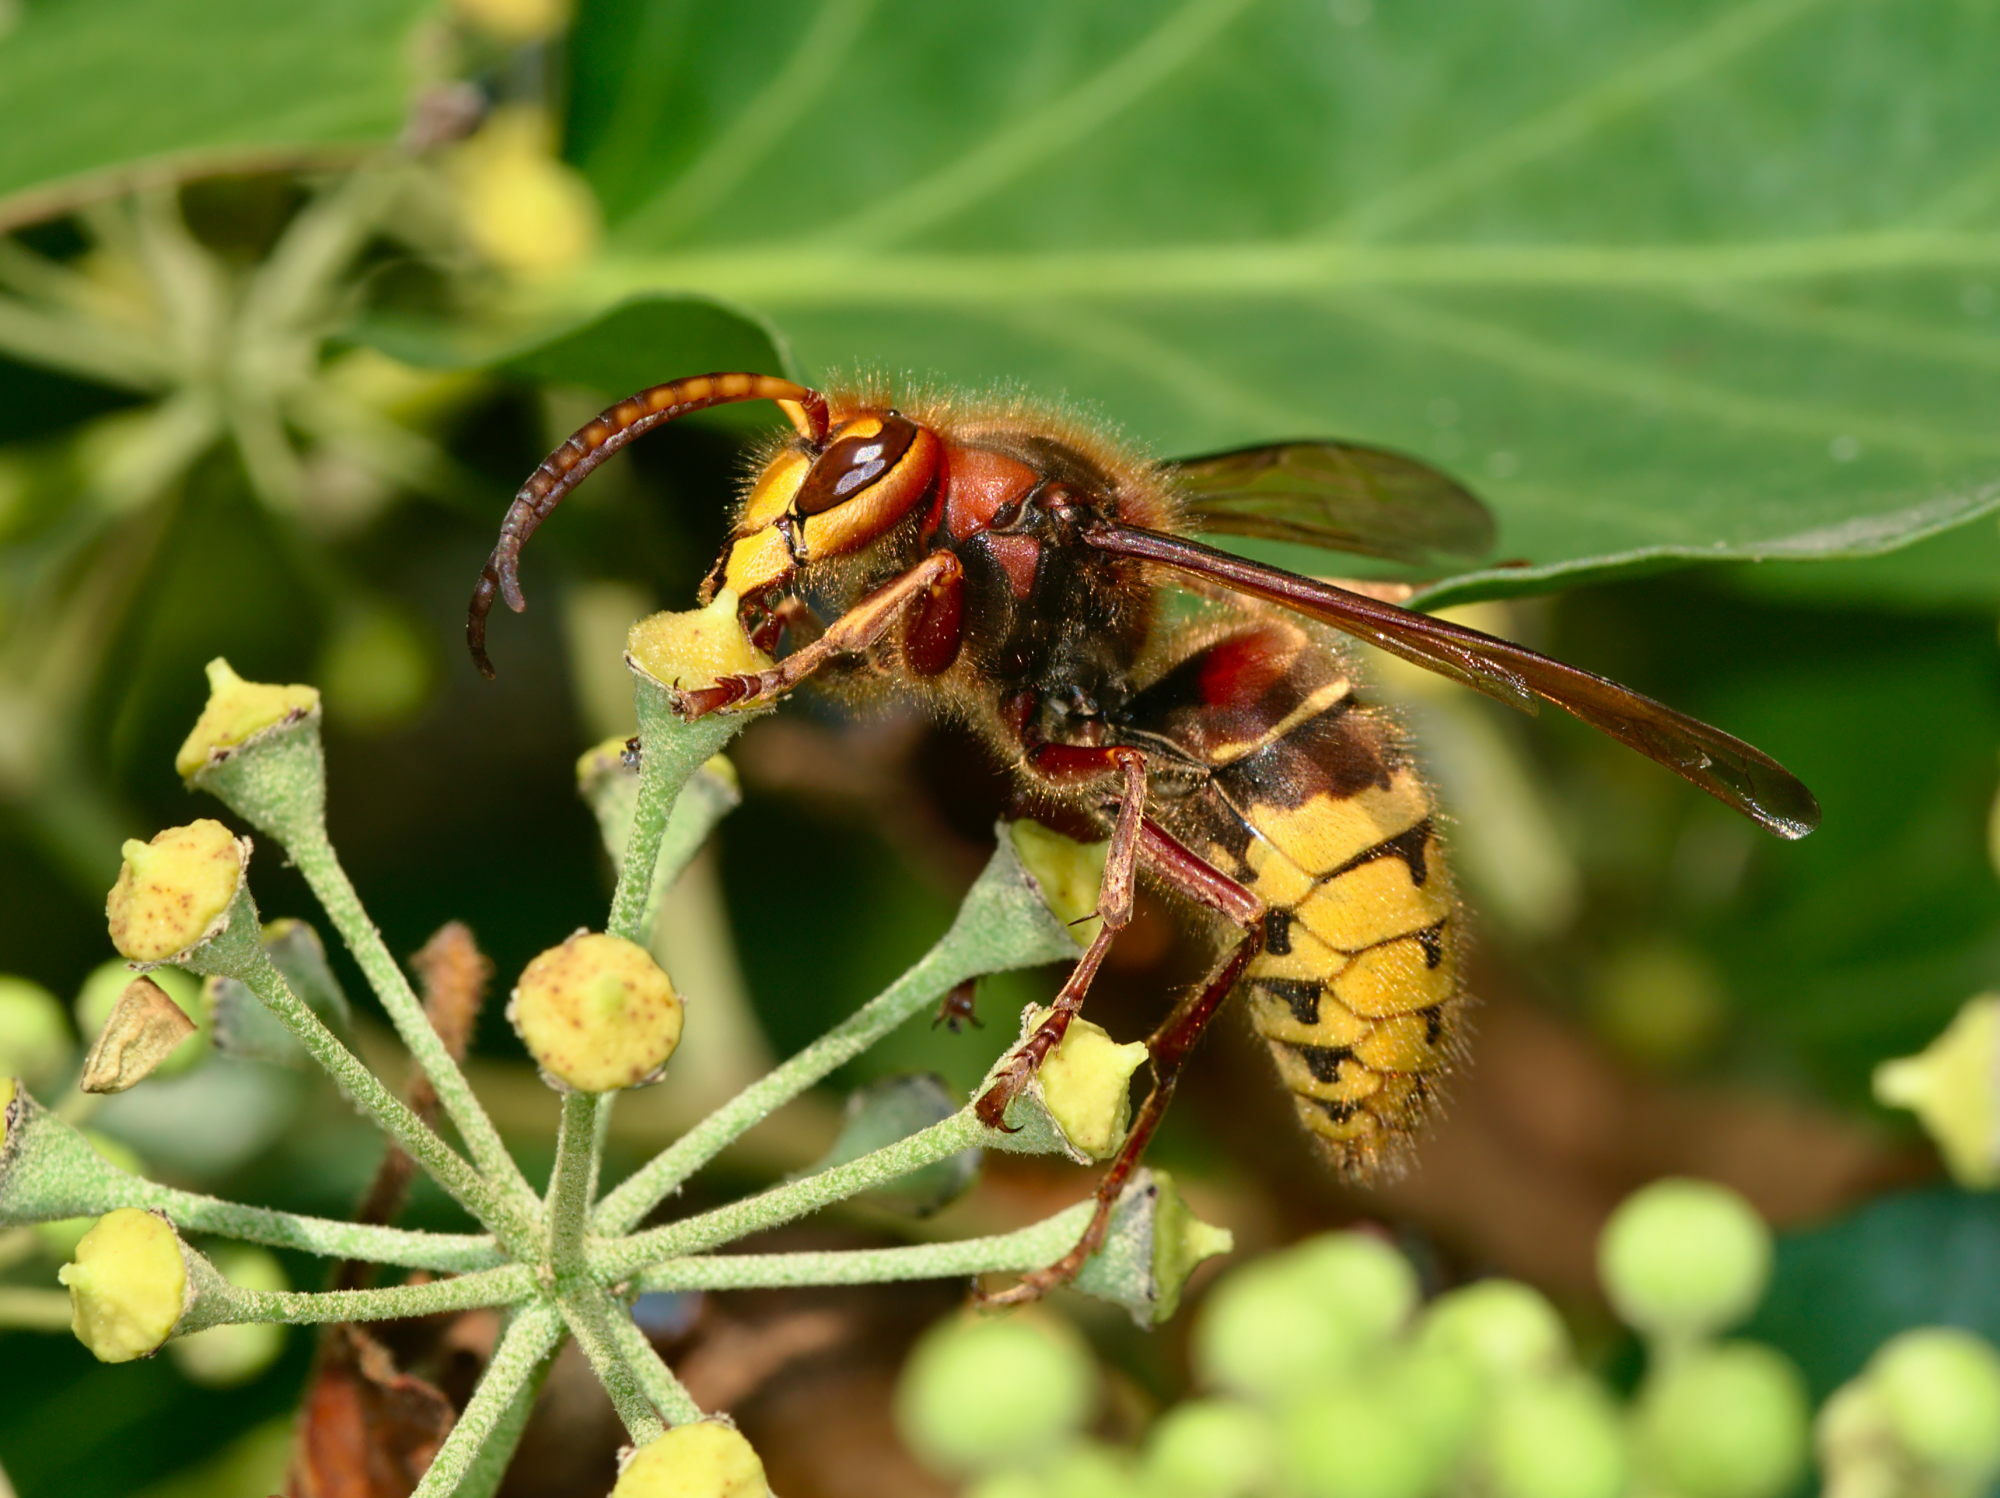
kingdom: Animalia
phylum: Arthropoda
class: Insecta
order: Hymenoptera
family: Vespidae
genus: Vespa
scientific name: Vespa crabro
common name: Hornet
